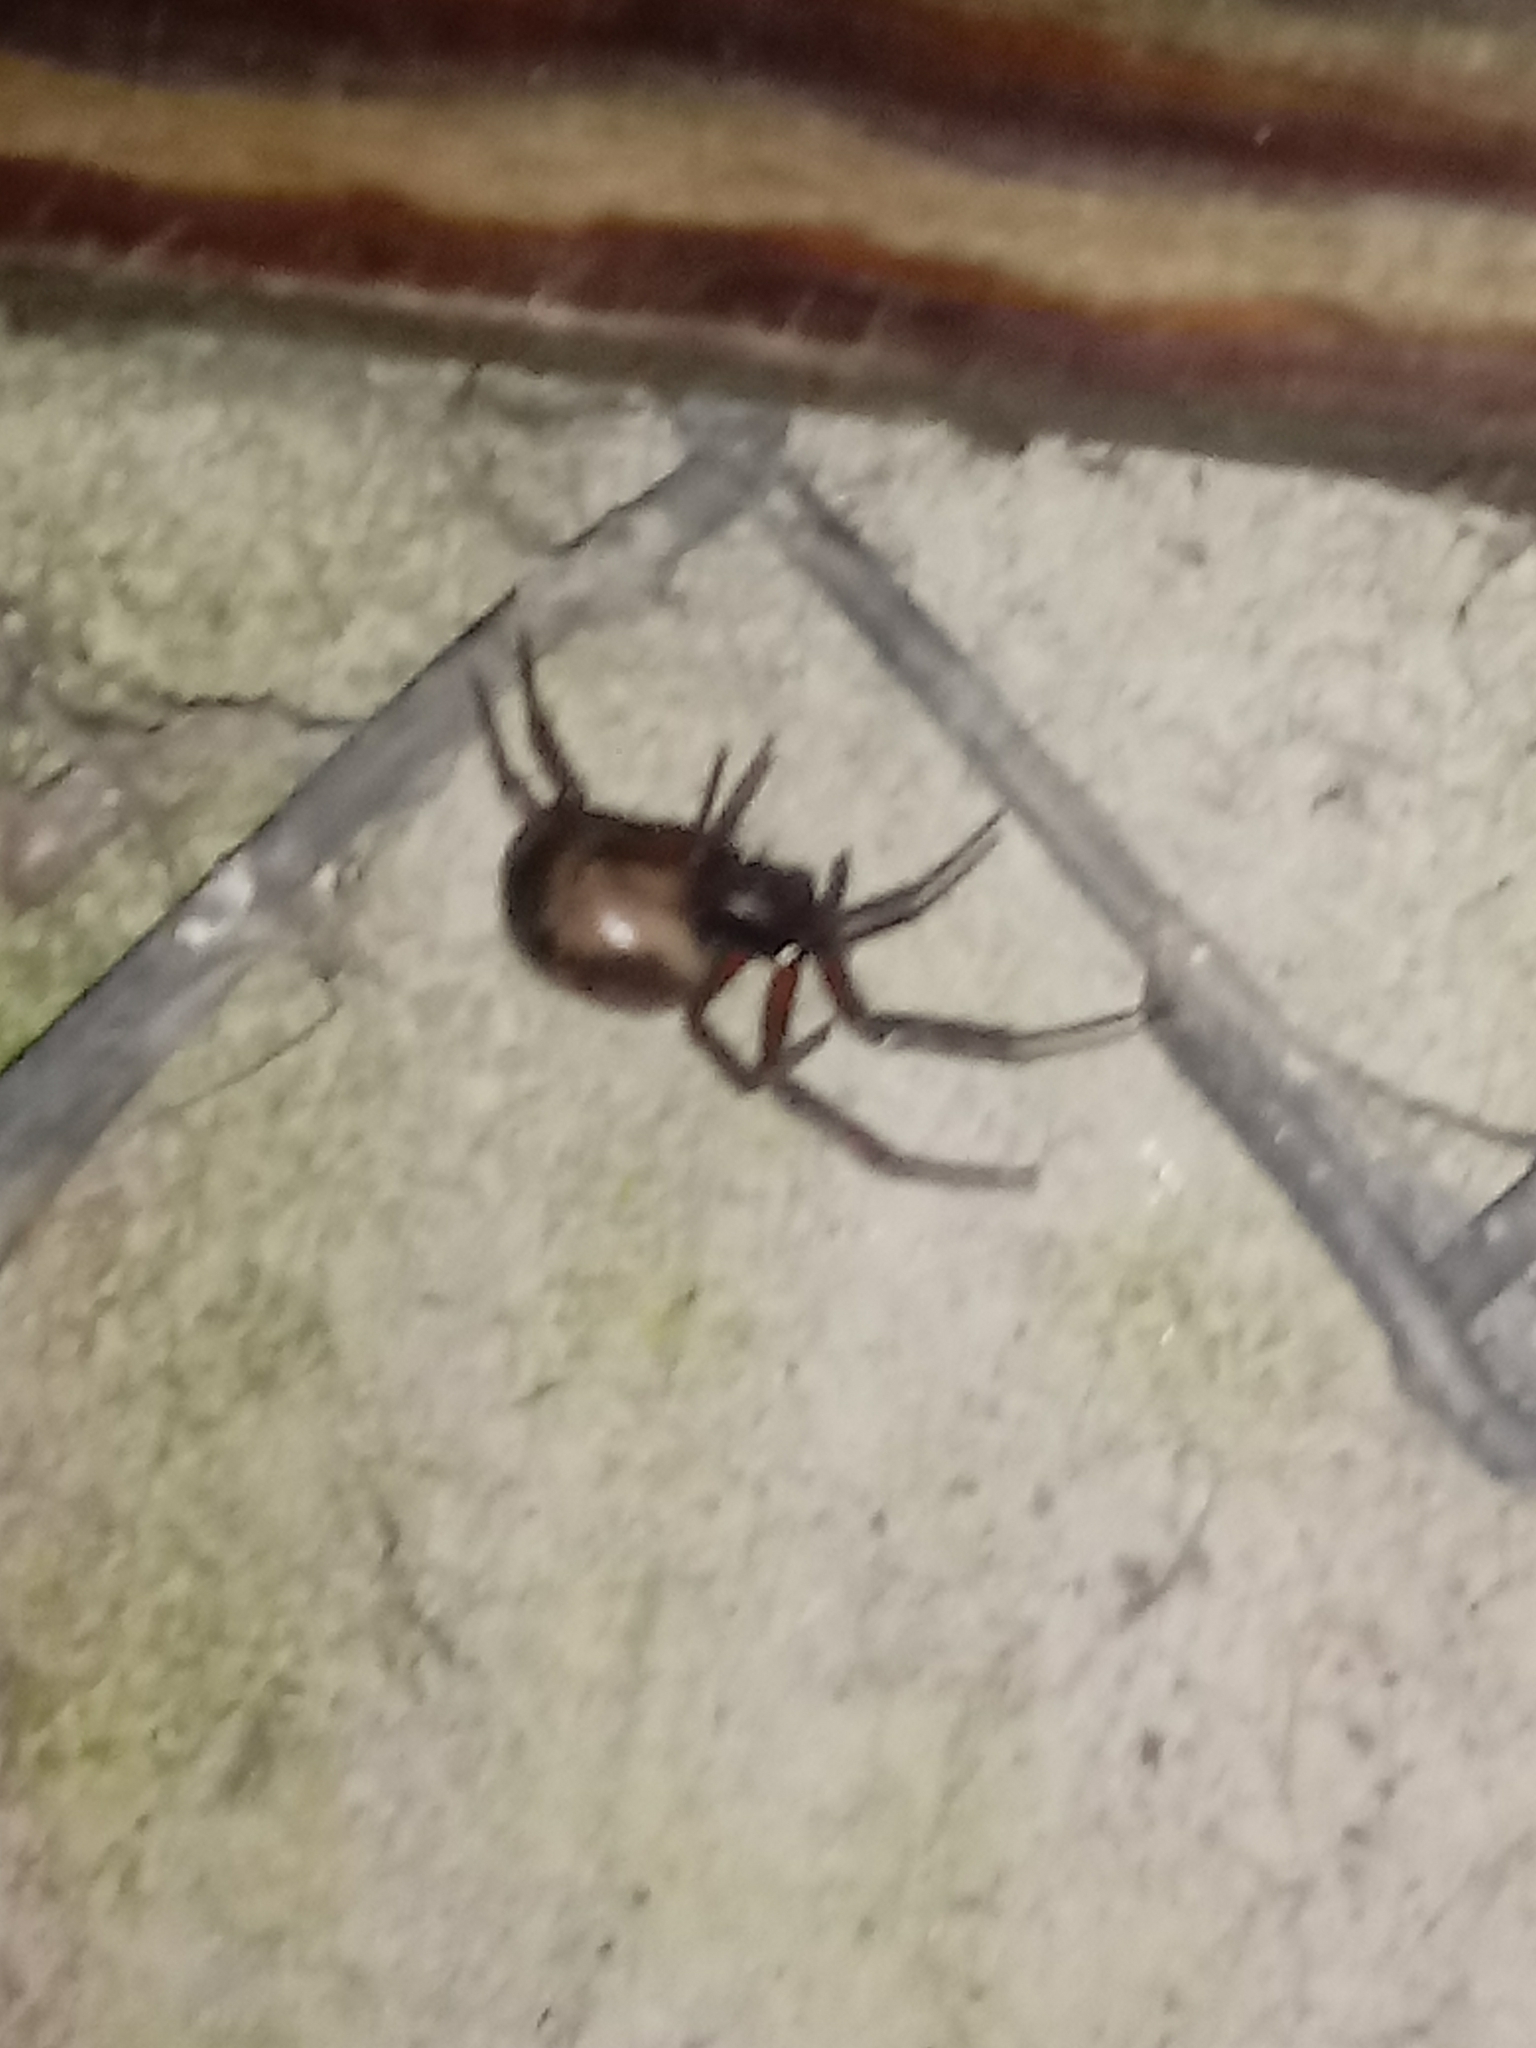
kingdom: Animalia
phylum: Arthropoda
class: Arachnida
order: Araneae
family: Theridiidae
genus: Steatoda
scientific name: Steatoda nobilis
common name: Cobweb weaver
